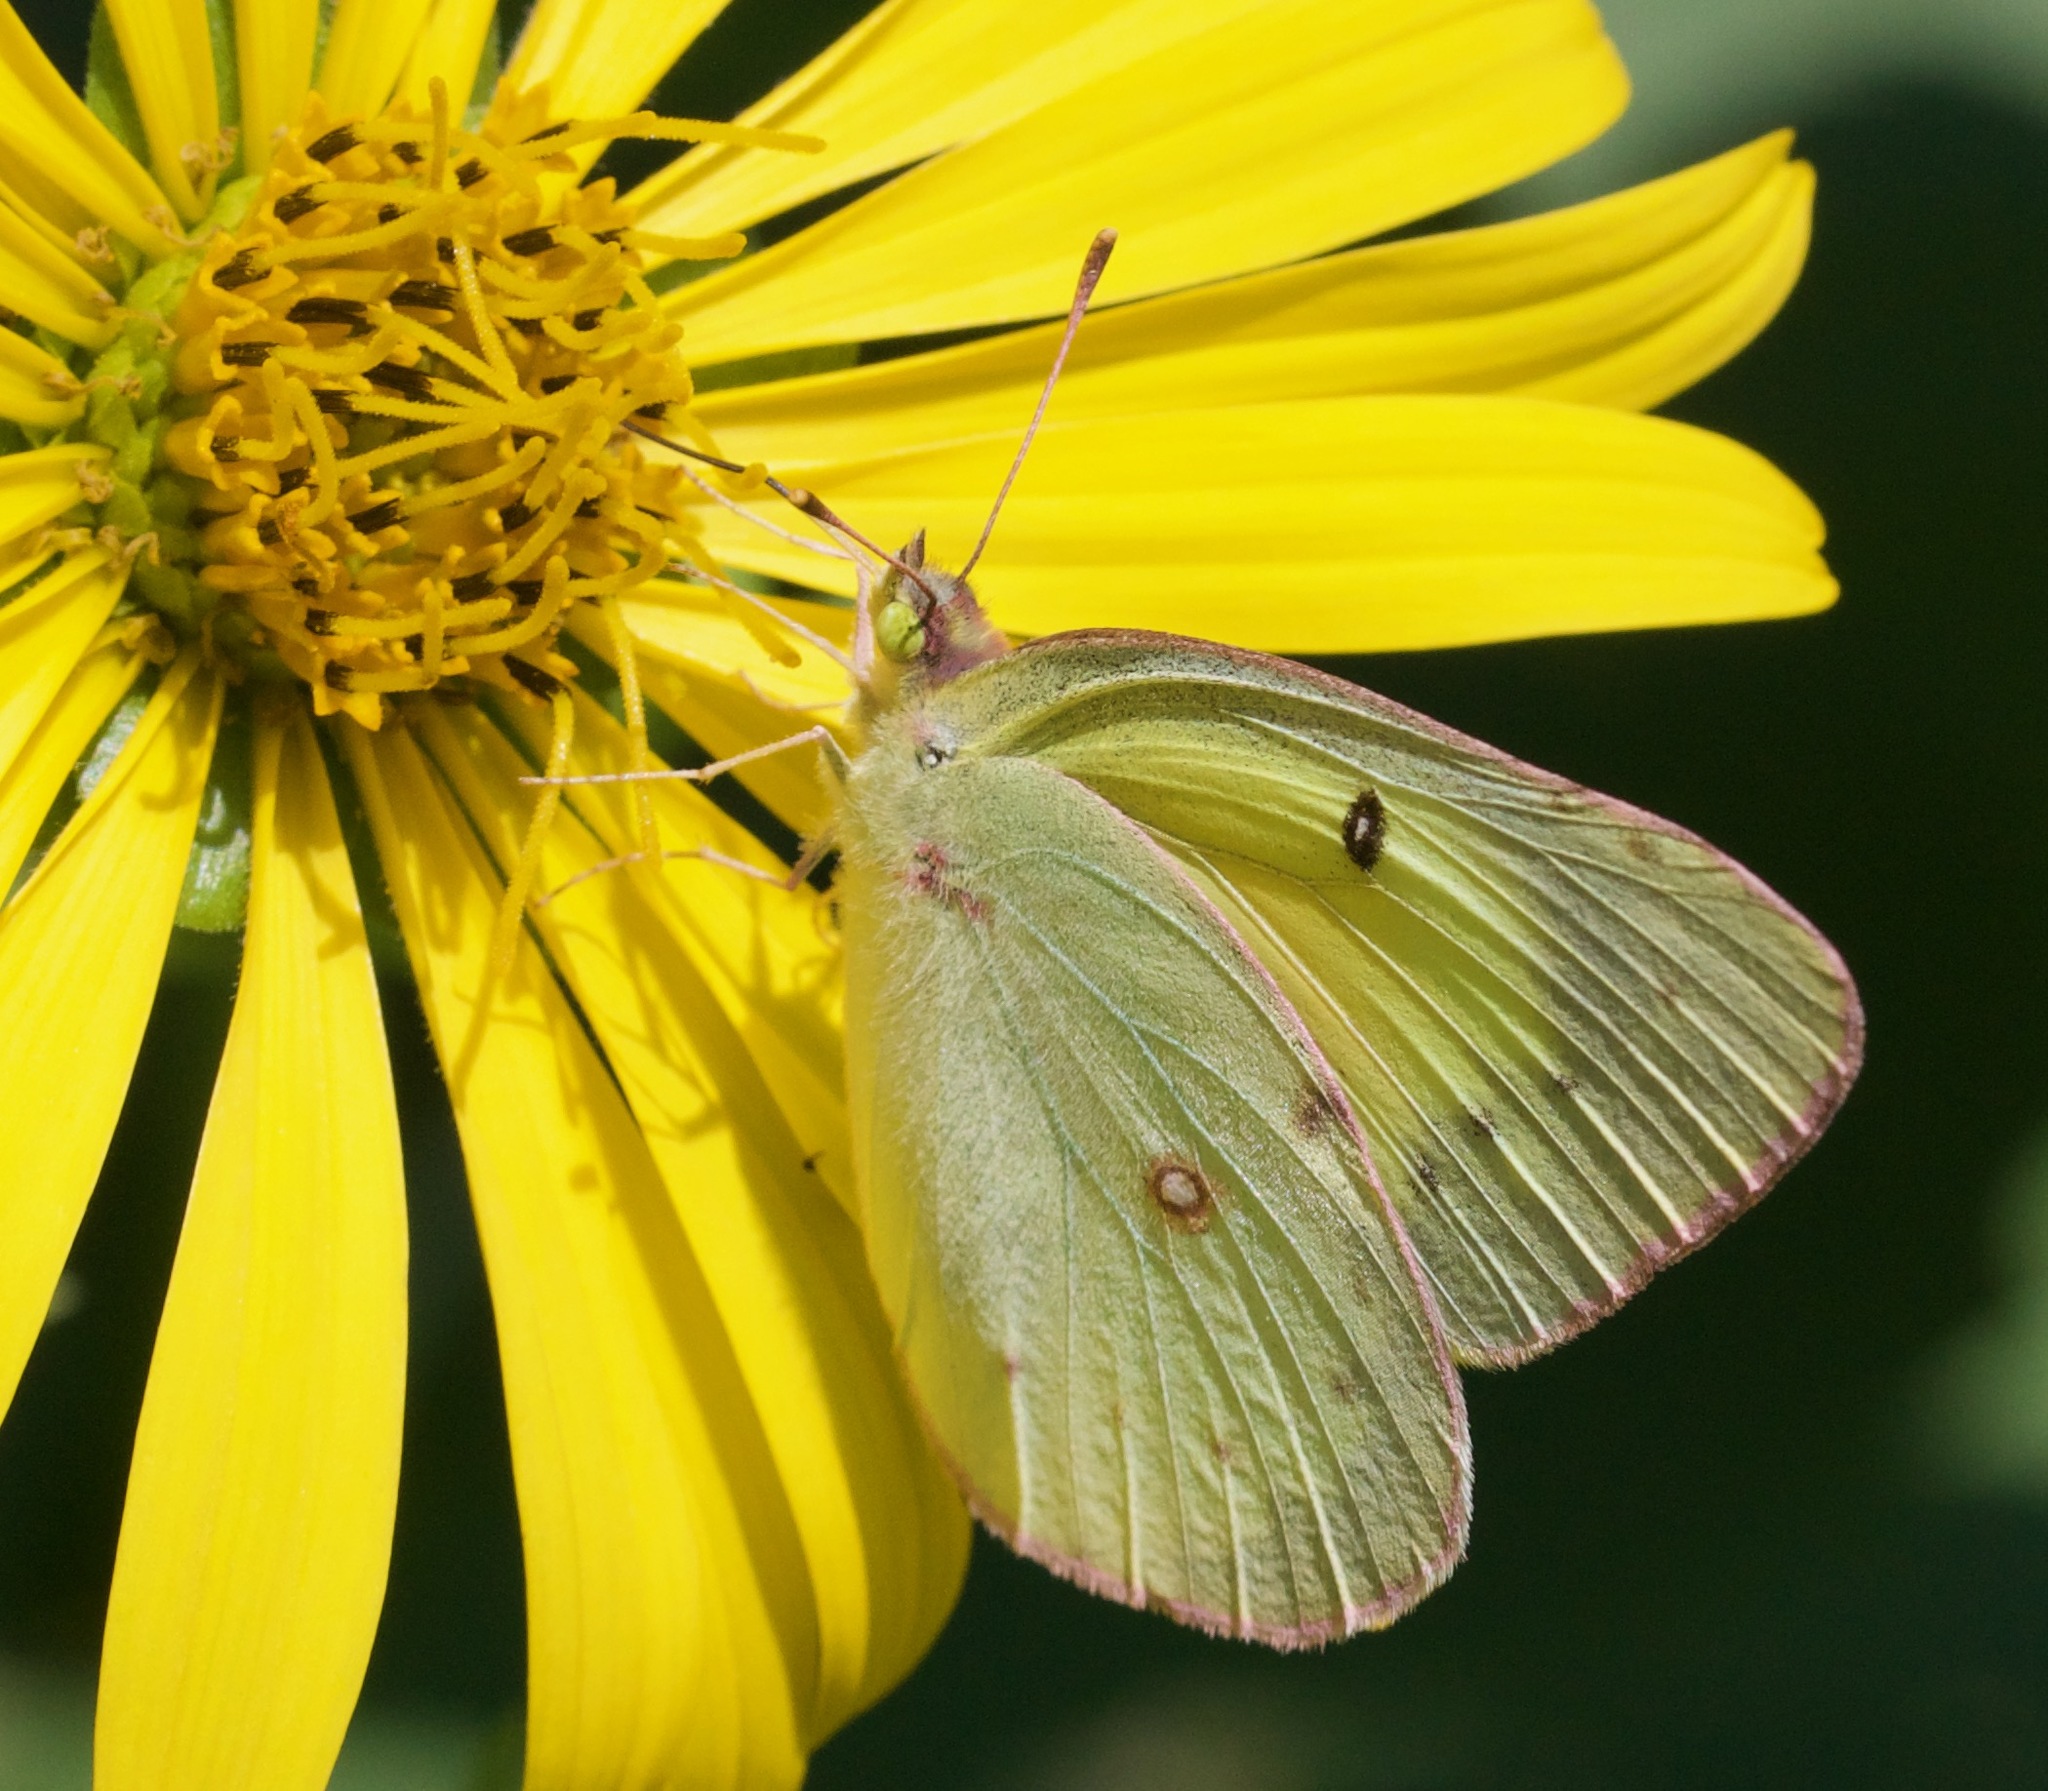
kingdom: Animalia
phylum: Arthropoda
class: Insecta
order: Lepidoptera
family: Pieridae
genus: Colias
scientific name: Colias philodice
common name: Clouded sulphur
